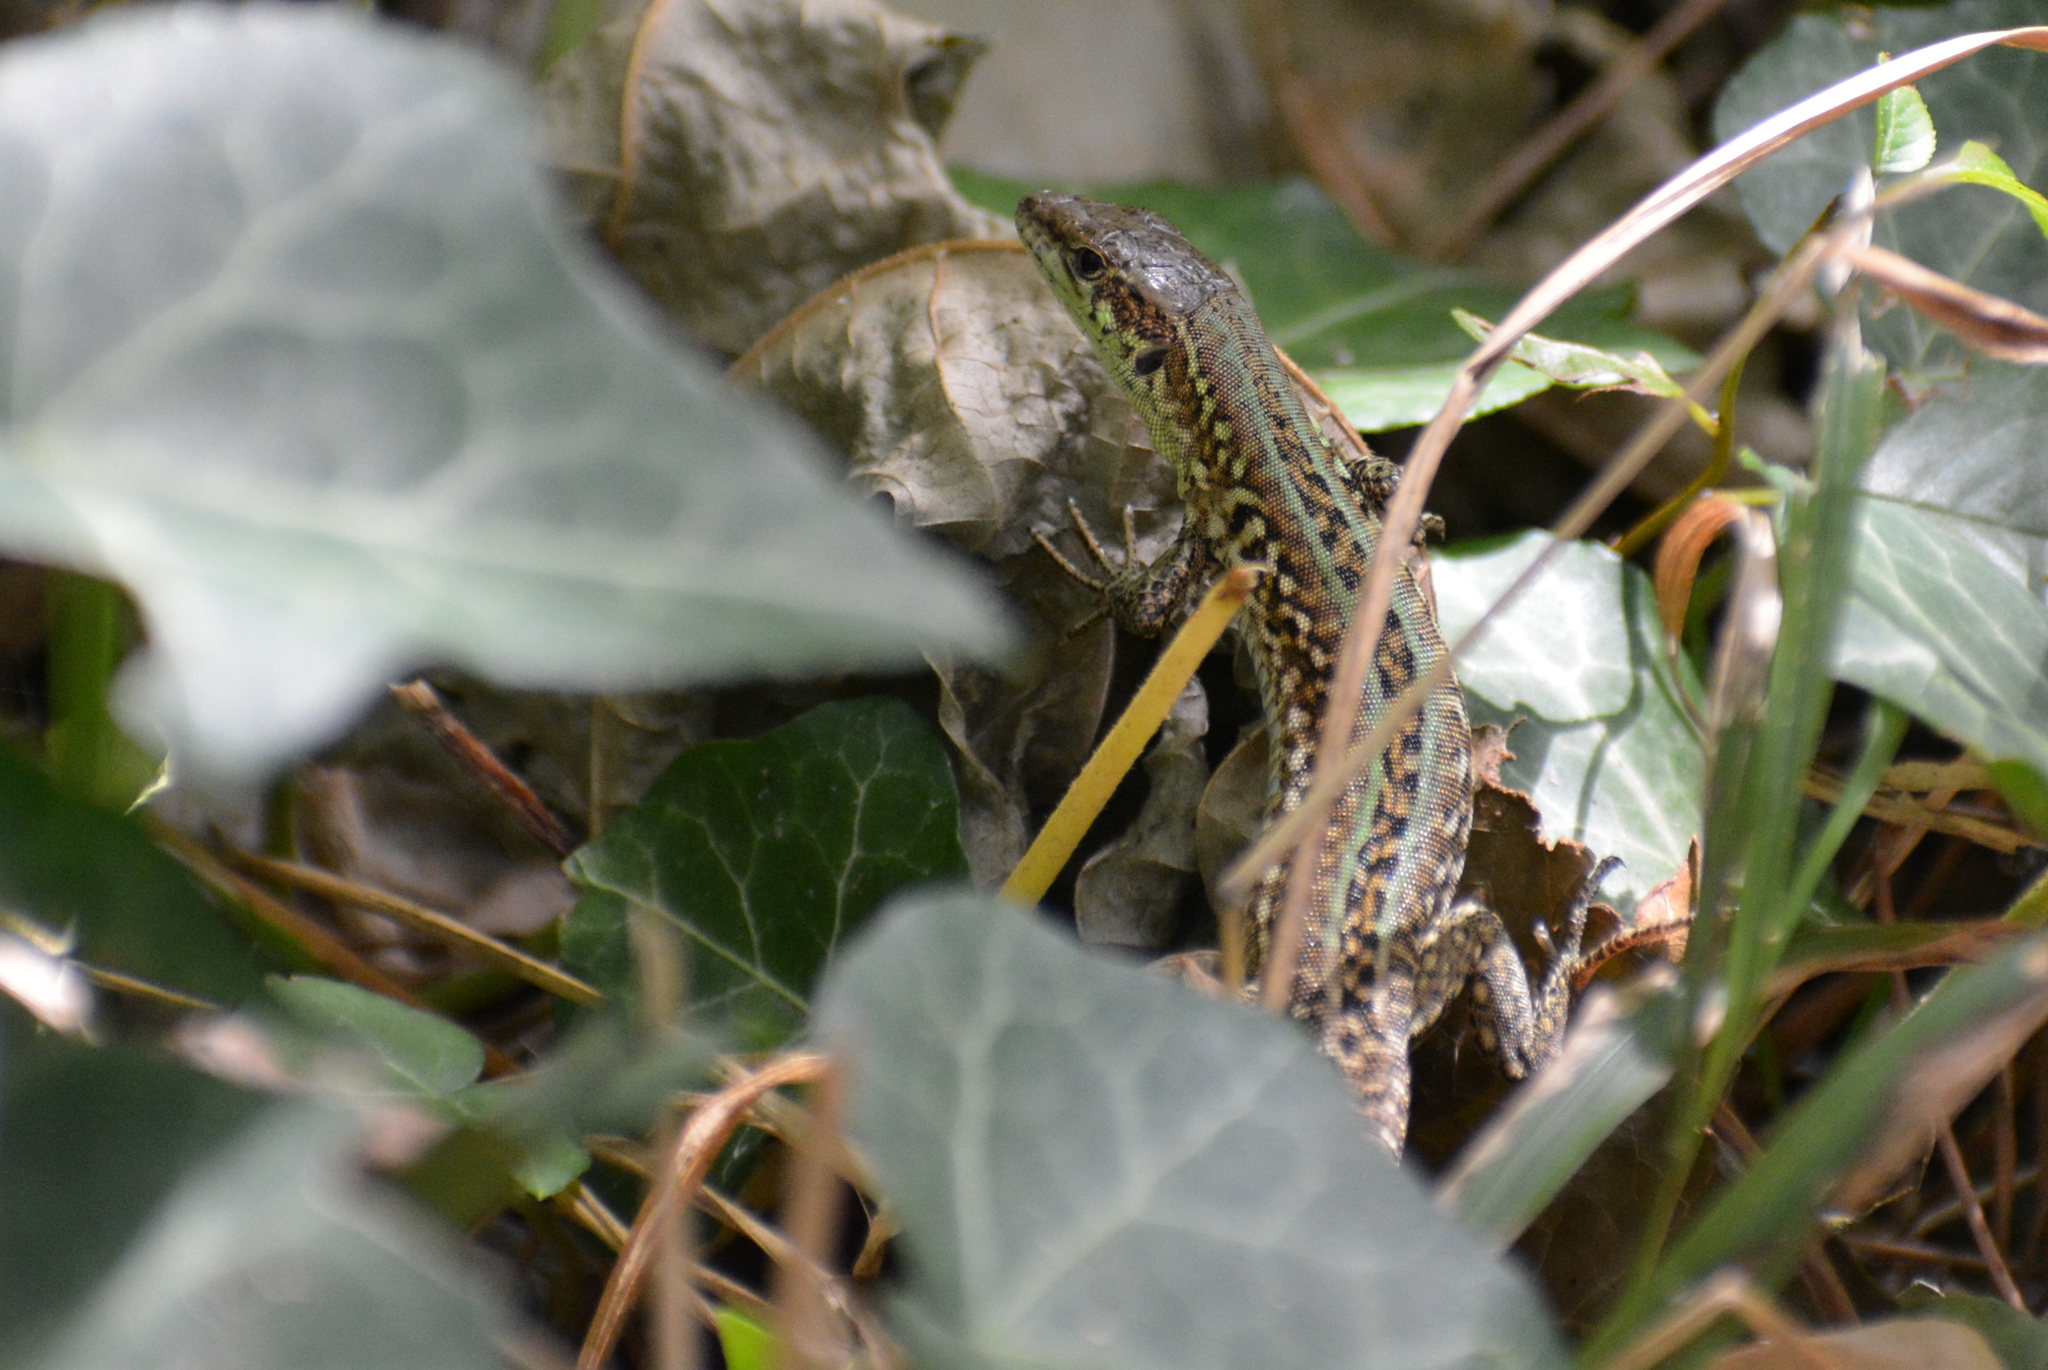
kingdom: Animalia
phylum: Chordata
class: Squamata
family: Lacertidae
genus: Podarcis
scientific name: Podarcis siculus
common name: Italian wall lizard
